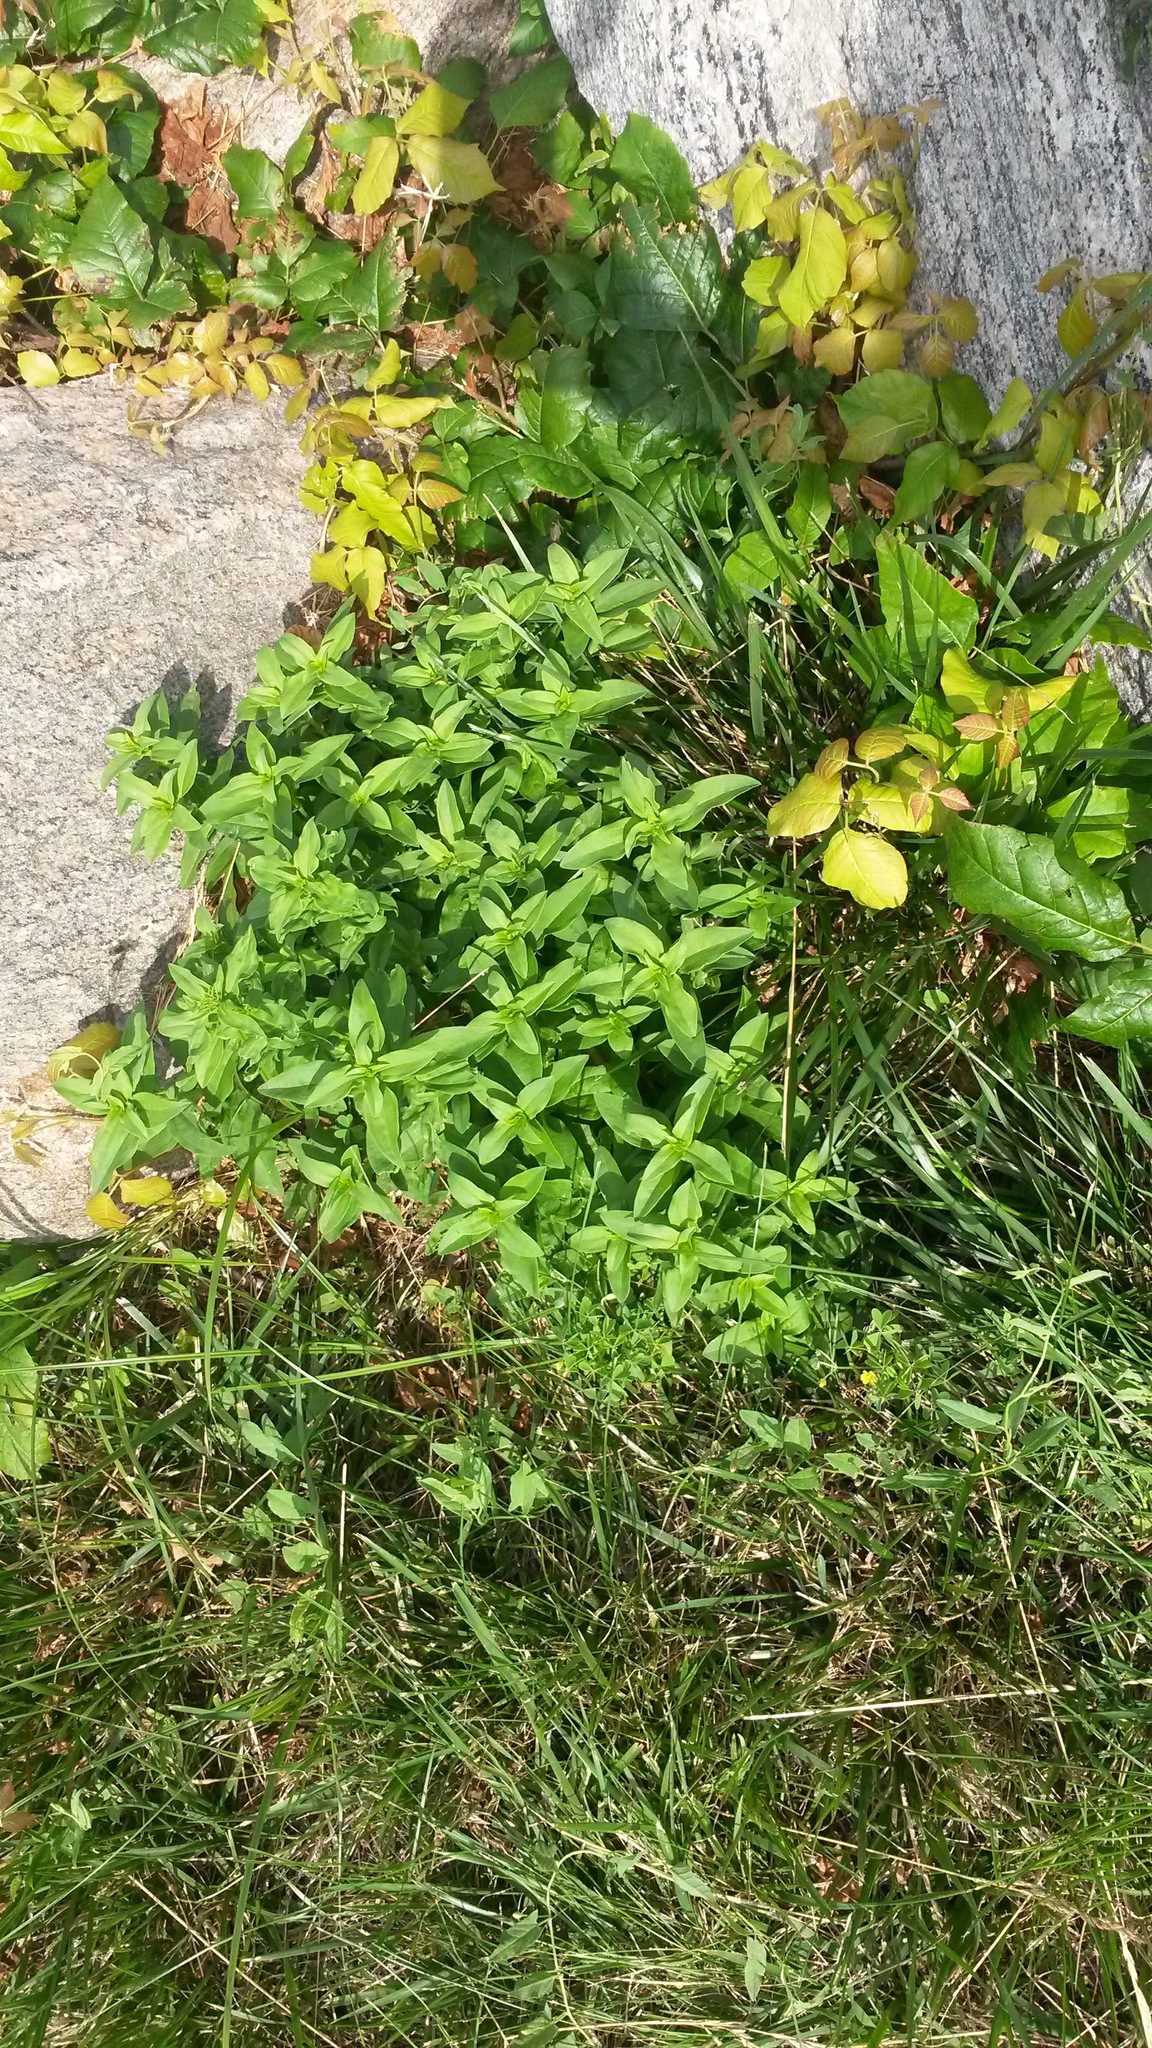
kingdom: Plantae
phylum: Tracheophyta
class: Magnoliopsida
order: Caryophyllales
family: Caryophyllaceae
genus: Saponaria
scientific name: Saponaria officinalis
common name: Soapwort
